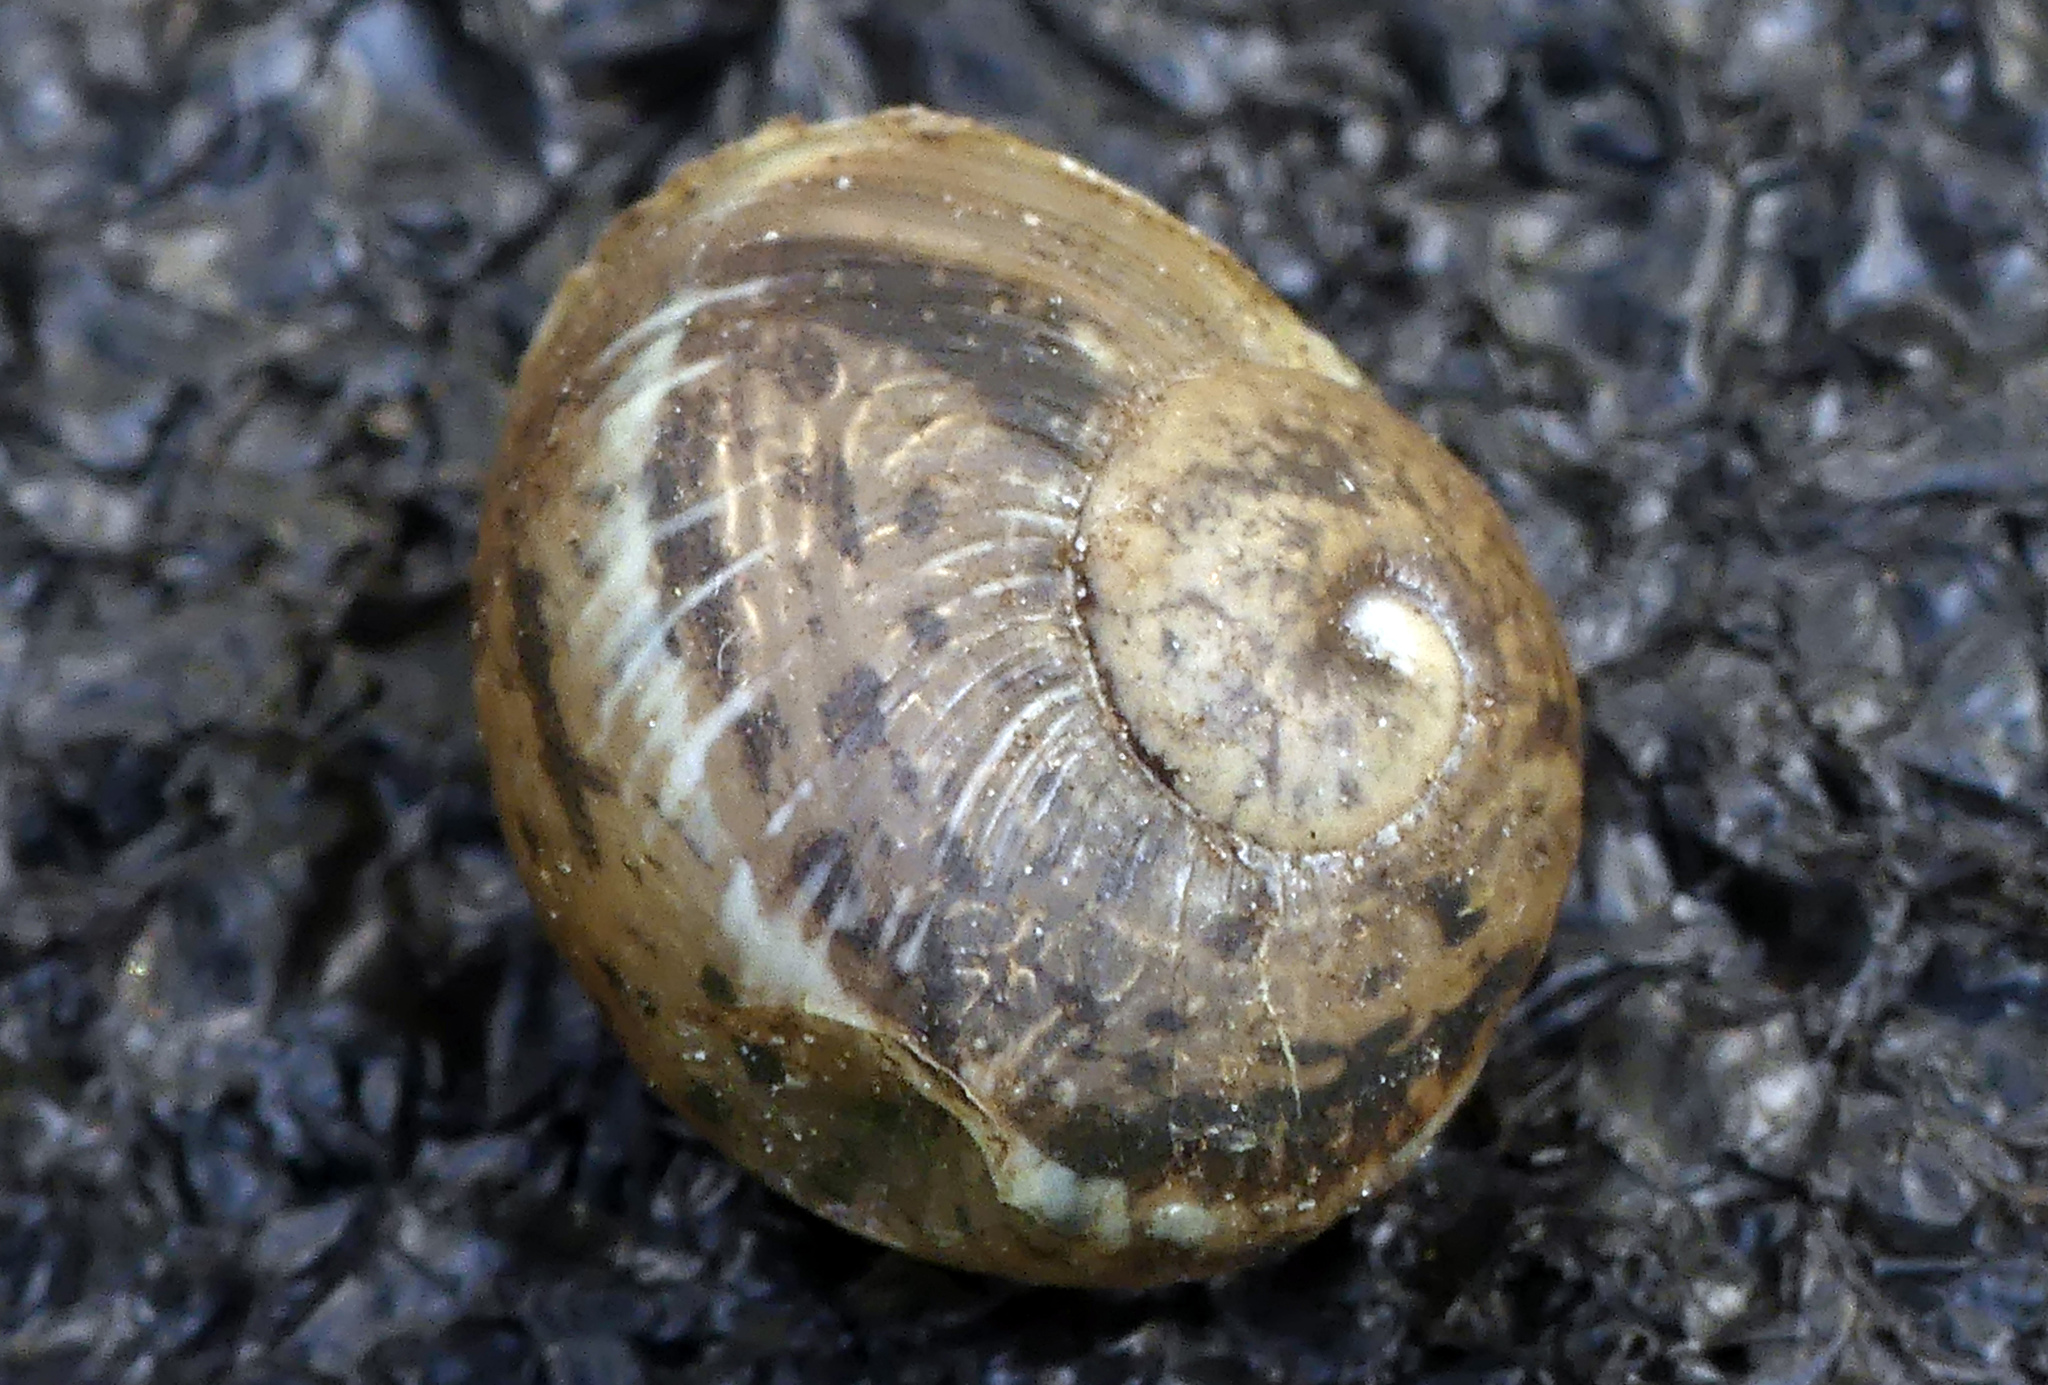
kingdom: Animalia
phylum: Mollusca
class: Gastropoda
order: Stylommatophora
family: Helicidae
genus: Cornu
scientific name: Cornu aspersum
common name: Brown garden snail
